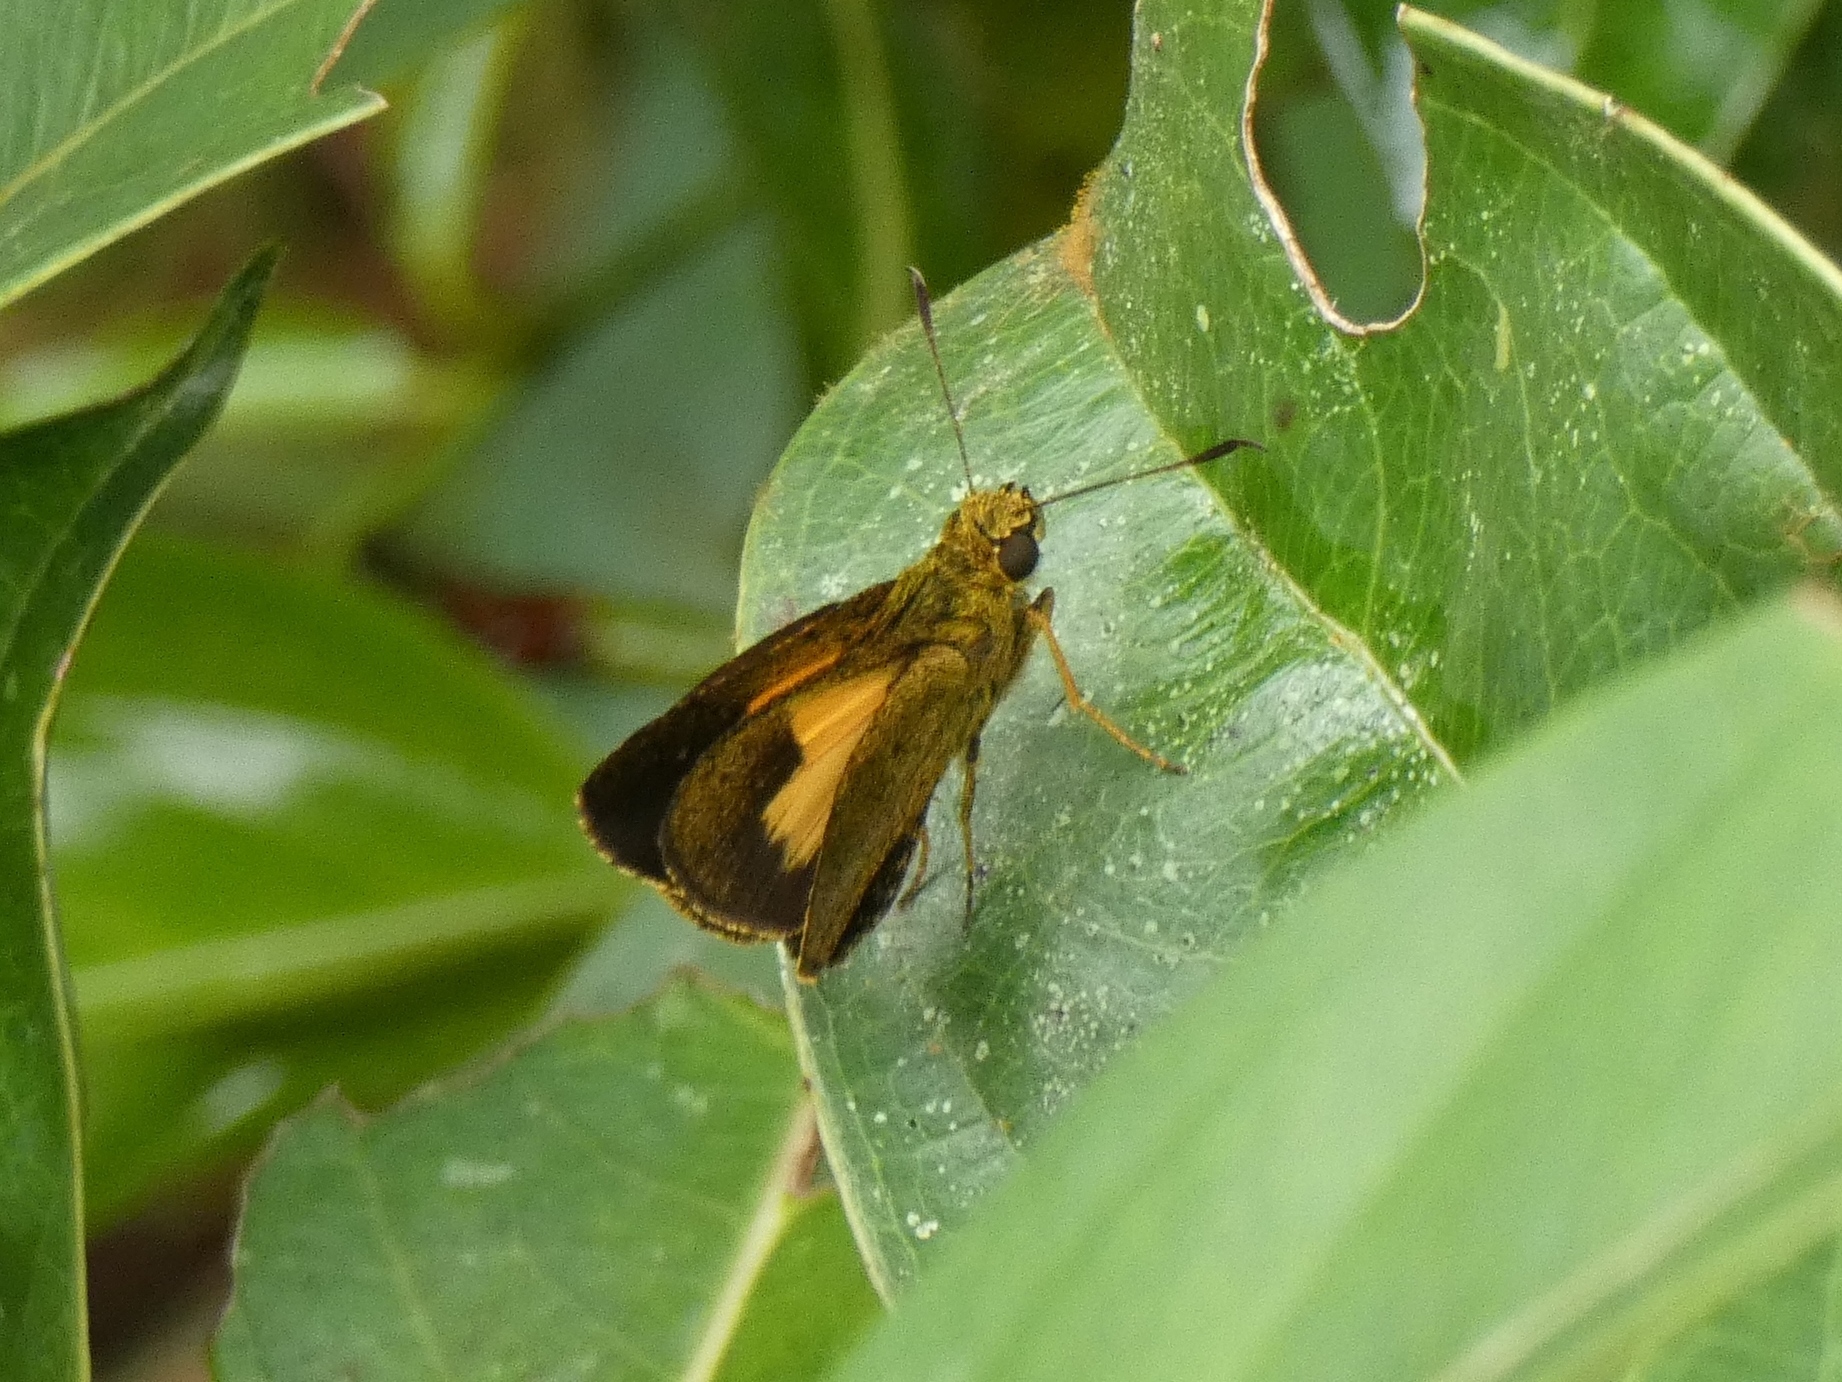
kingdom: Animalia
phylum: Arthropoda
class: Insecta
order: Lepidoptera
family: Hesperiidae
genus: Xanthodisca
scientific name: Xanthodisca vibius
